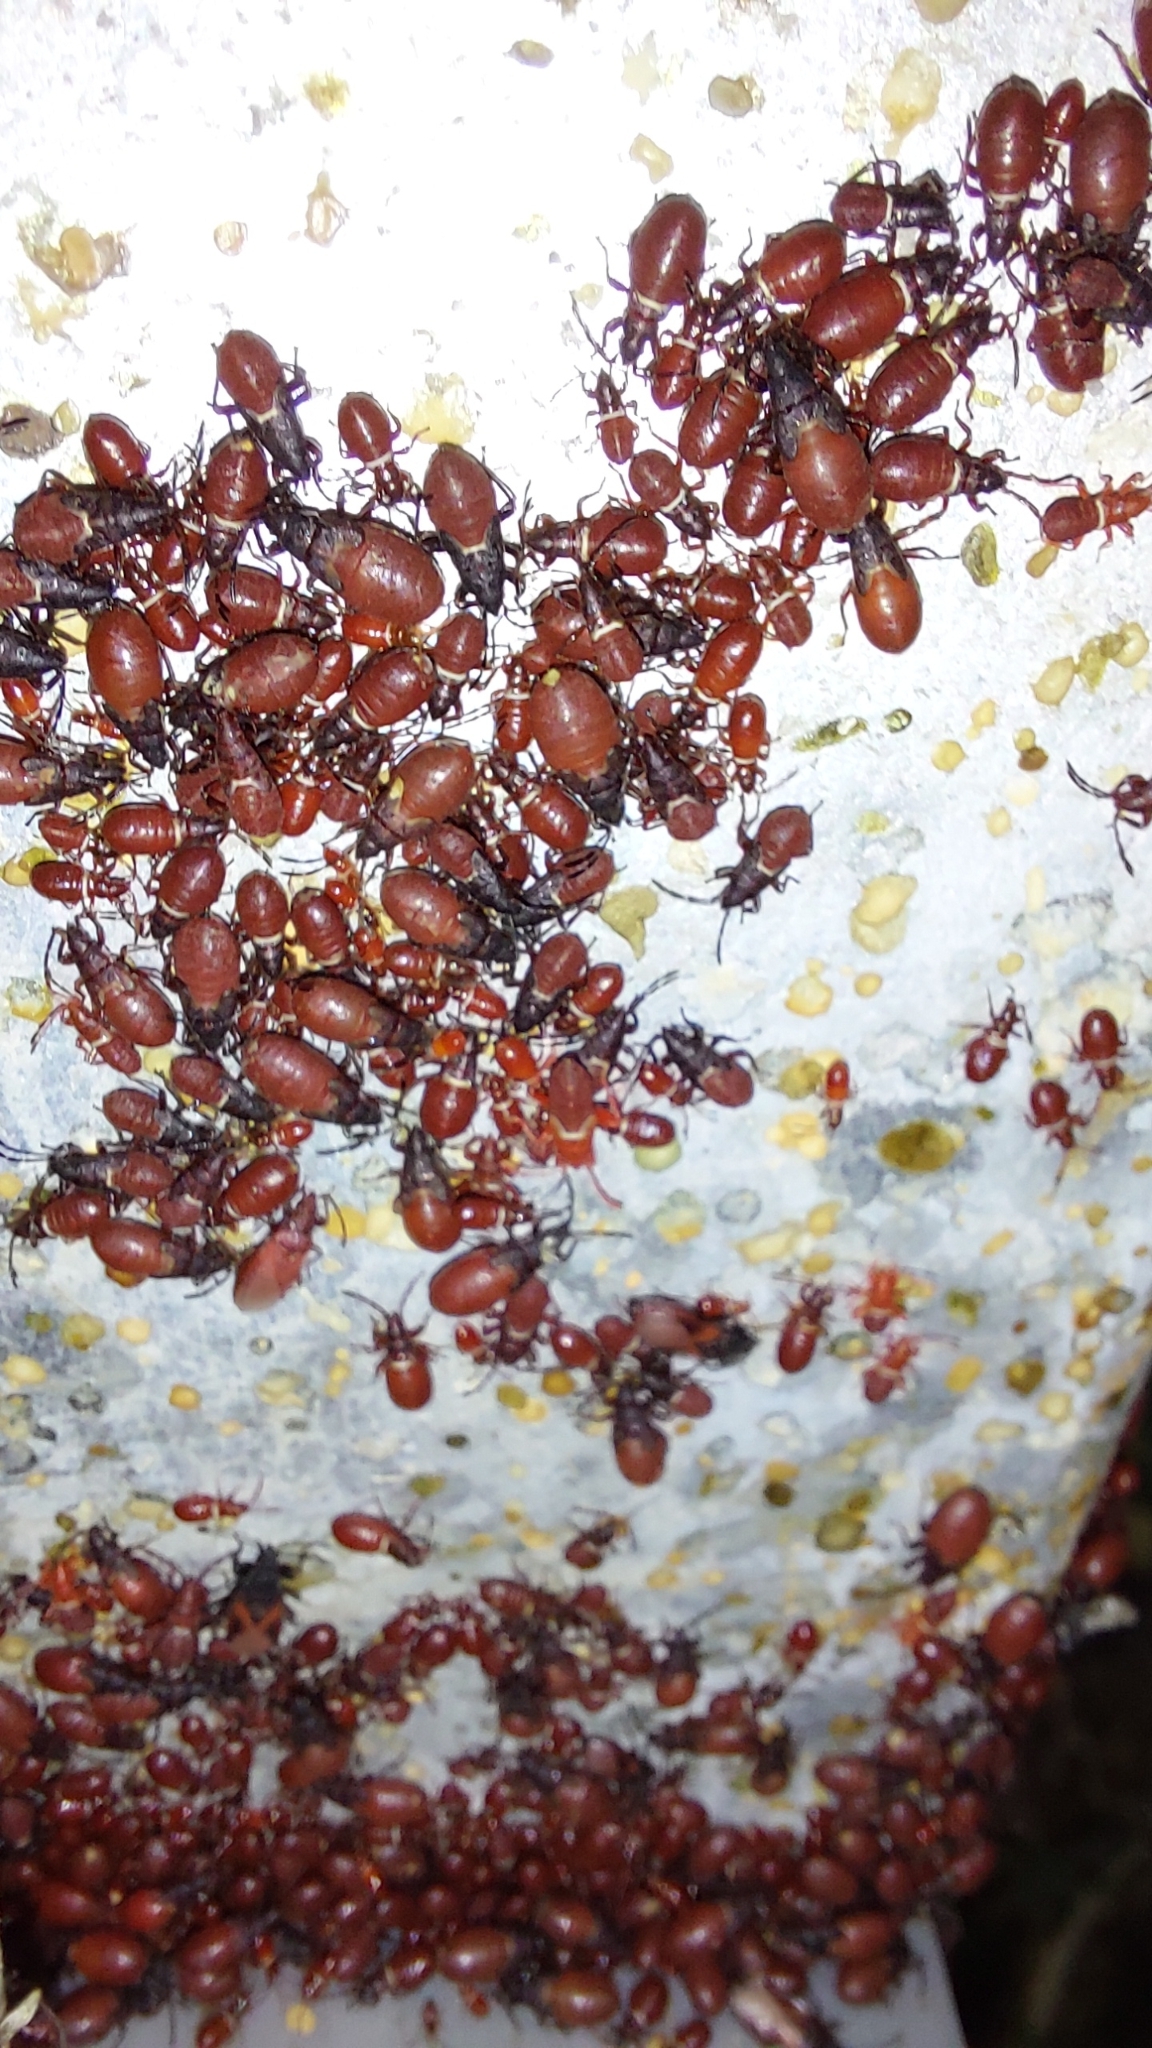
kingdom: Animalia
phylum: Arthropoda
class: Insecta
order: Hemiptera
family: Oxycarenidae
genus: Oxycarenus
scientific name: Oxycarenus lavaterae
